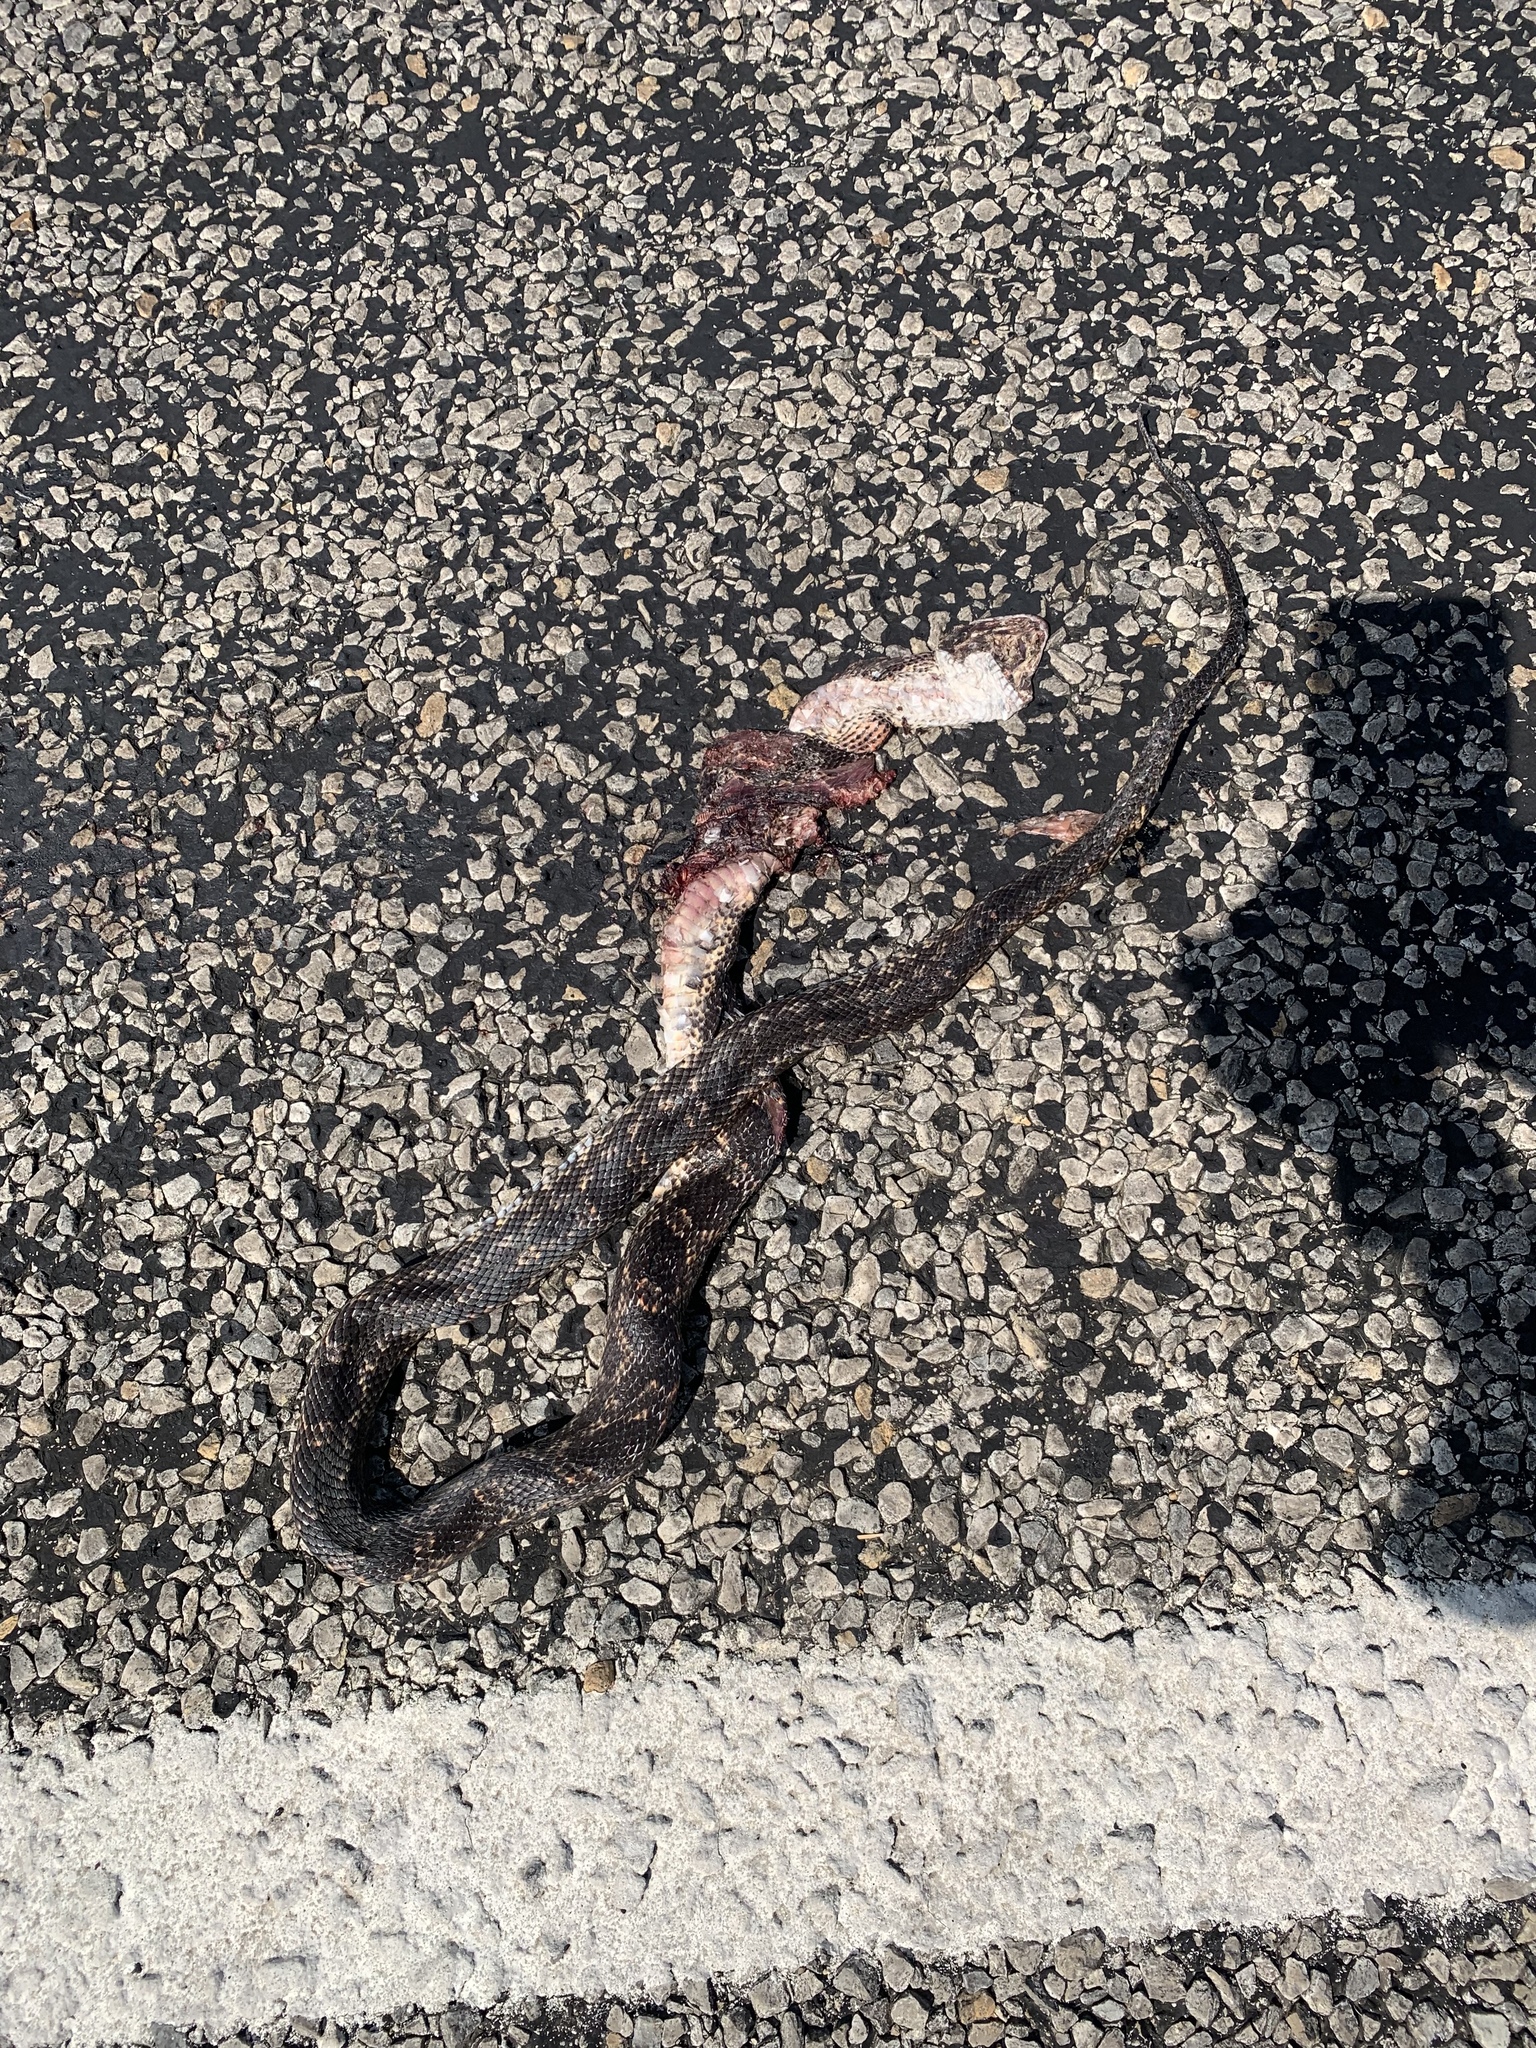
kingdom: Animalia
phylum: Chordata
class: Squamata
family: Colubridae
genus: Pantherophis
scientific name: Pantherophis obsoletus
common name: Black rat snake
